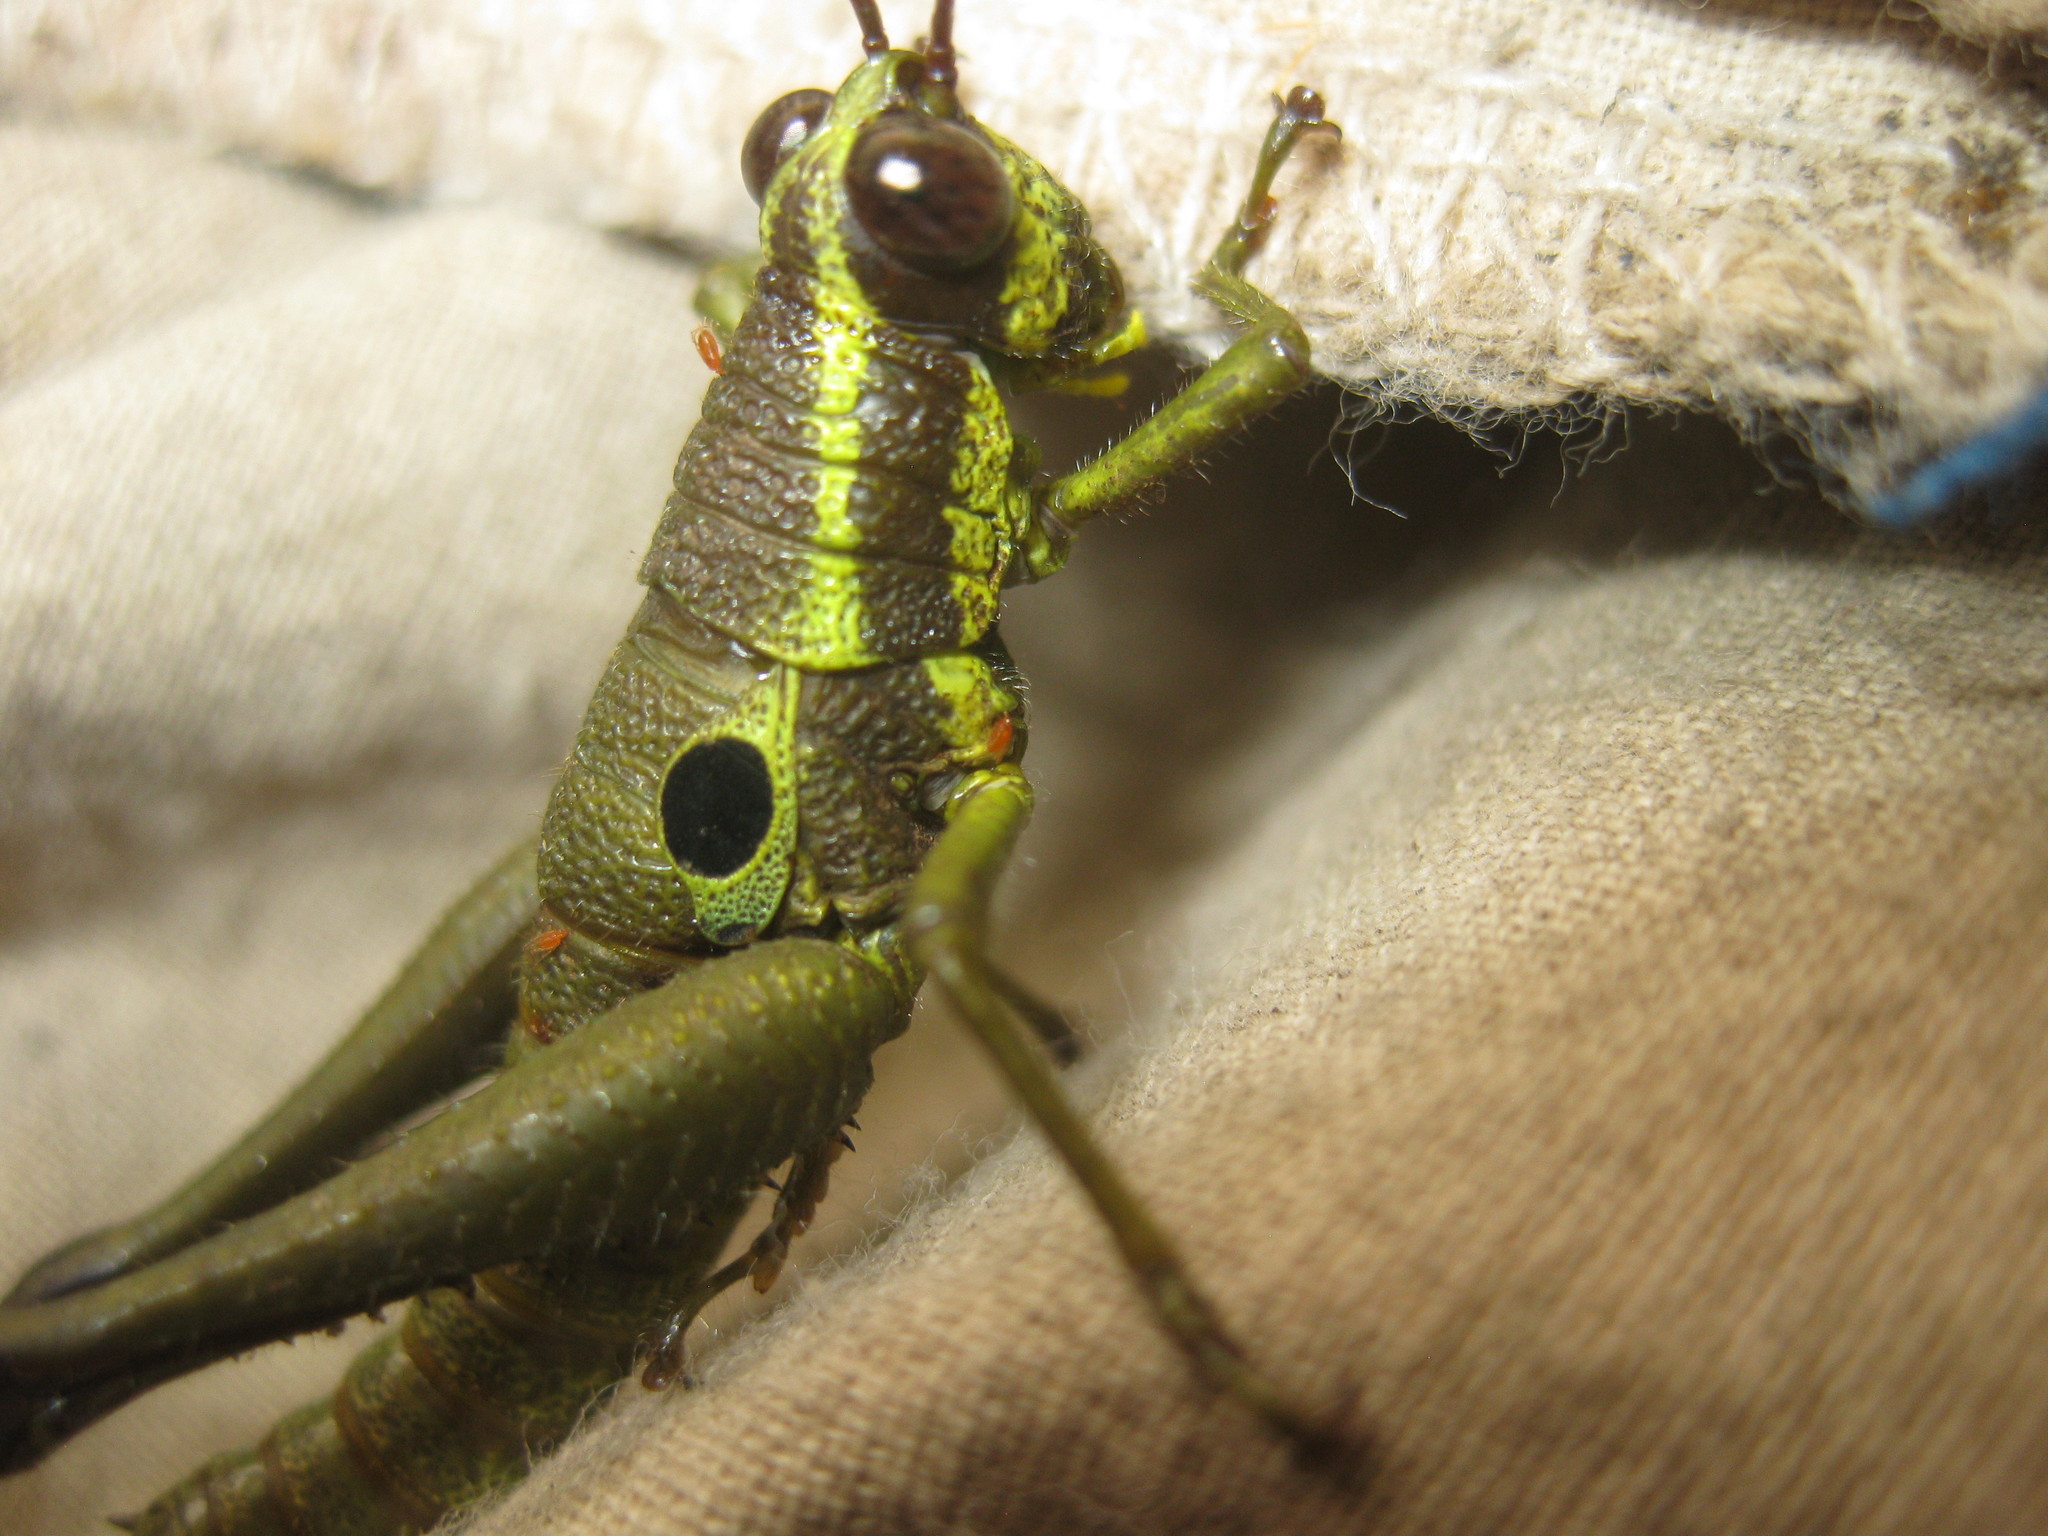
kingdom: Animalia
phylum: Arthropoda
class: Insecta
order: Orthoptera
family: Acrididae
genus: Ommatolampis
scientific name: Ommatolampis perspicillata
